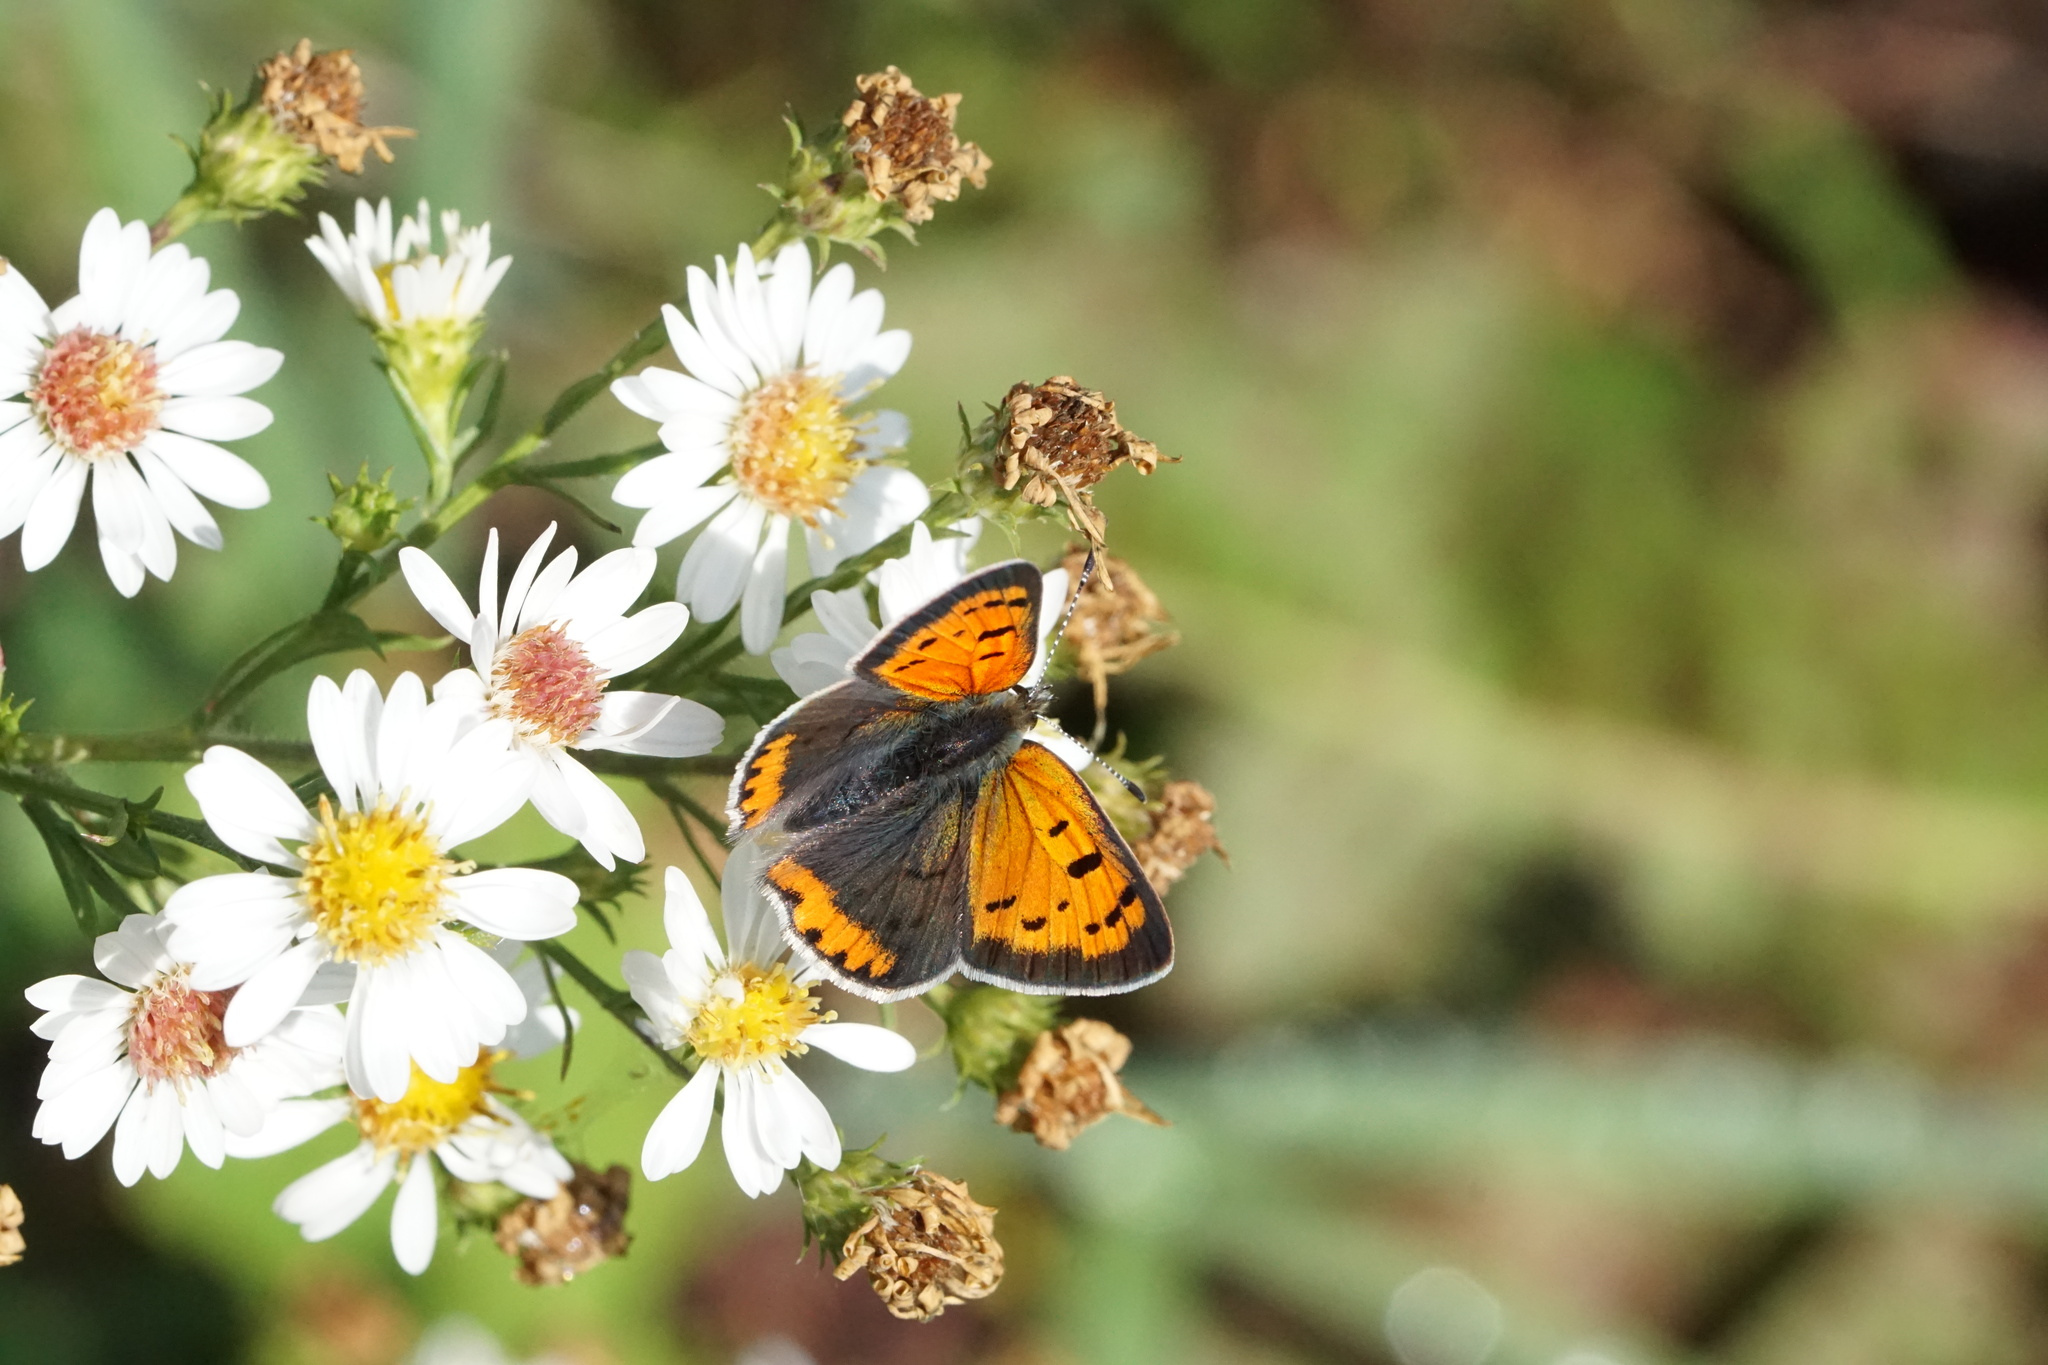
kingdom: Animalia
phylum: Arthropoda
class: Insecta
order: Lepidoptera
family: Lycaenidae
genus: Lycaena
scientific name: Lycaena hypophlaeas
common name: American copper
